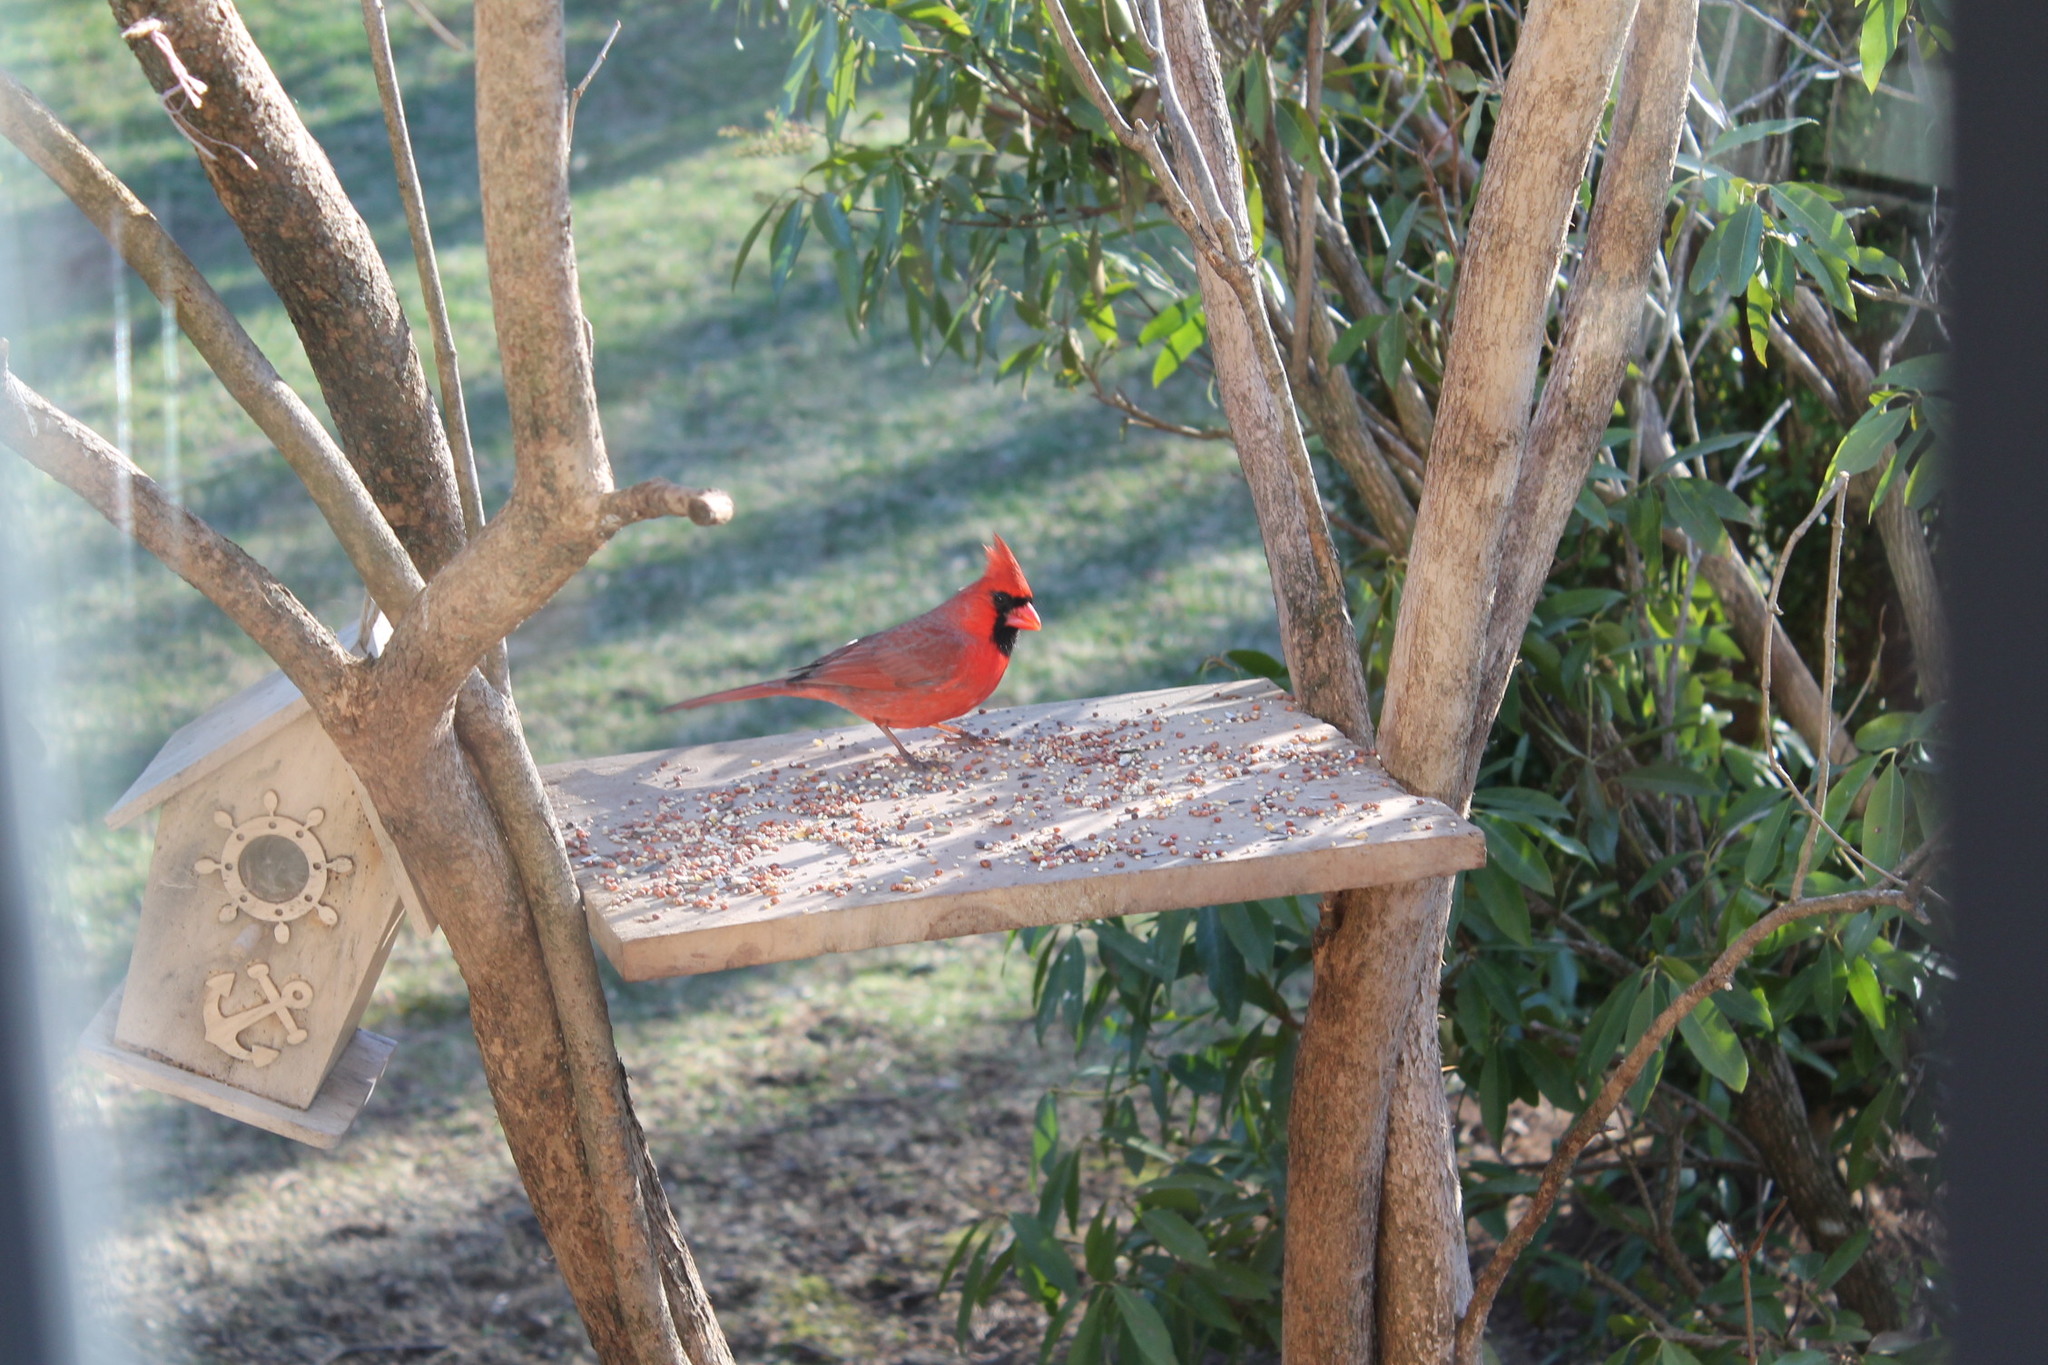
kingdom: Animalia
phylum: Chordata
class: Aves
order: Passeriformes
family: Cardinalidae
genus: Cardinalis
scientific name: Cardinalis cardinalis
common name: Northern cardinal
